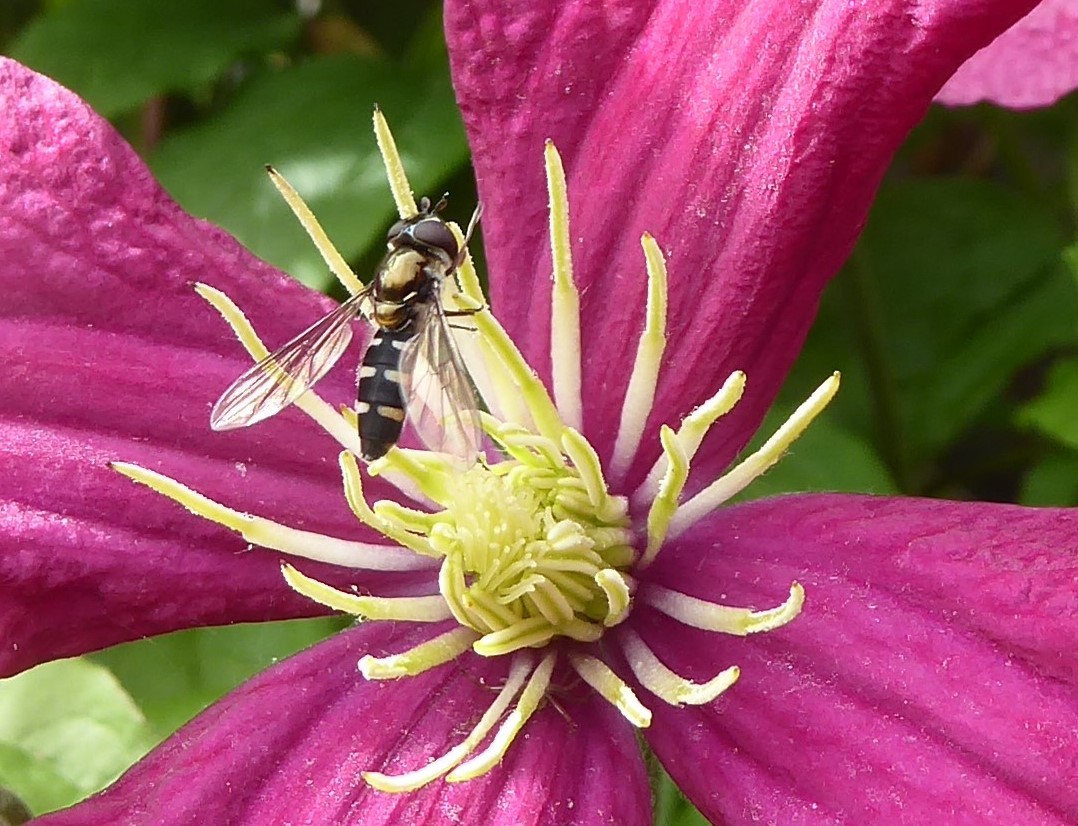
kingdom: Animalia
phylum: Arthropoda
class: Insecta
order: Diptera
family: Syrphidae
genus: Melangyna
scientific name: Melangyna novaezelandiae
